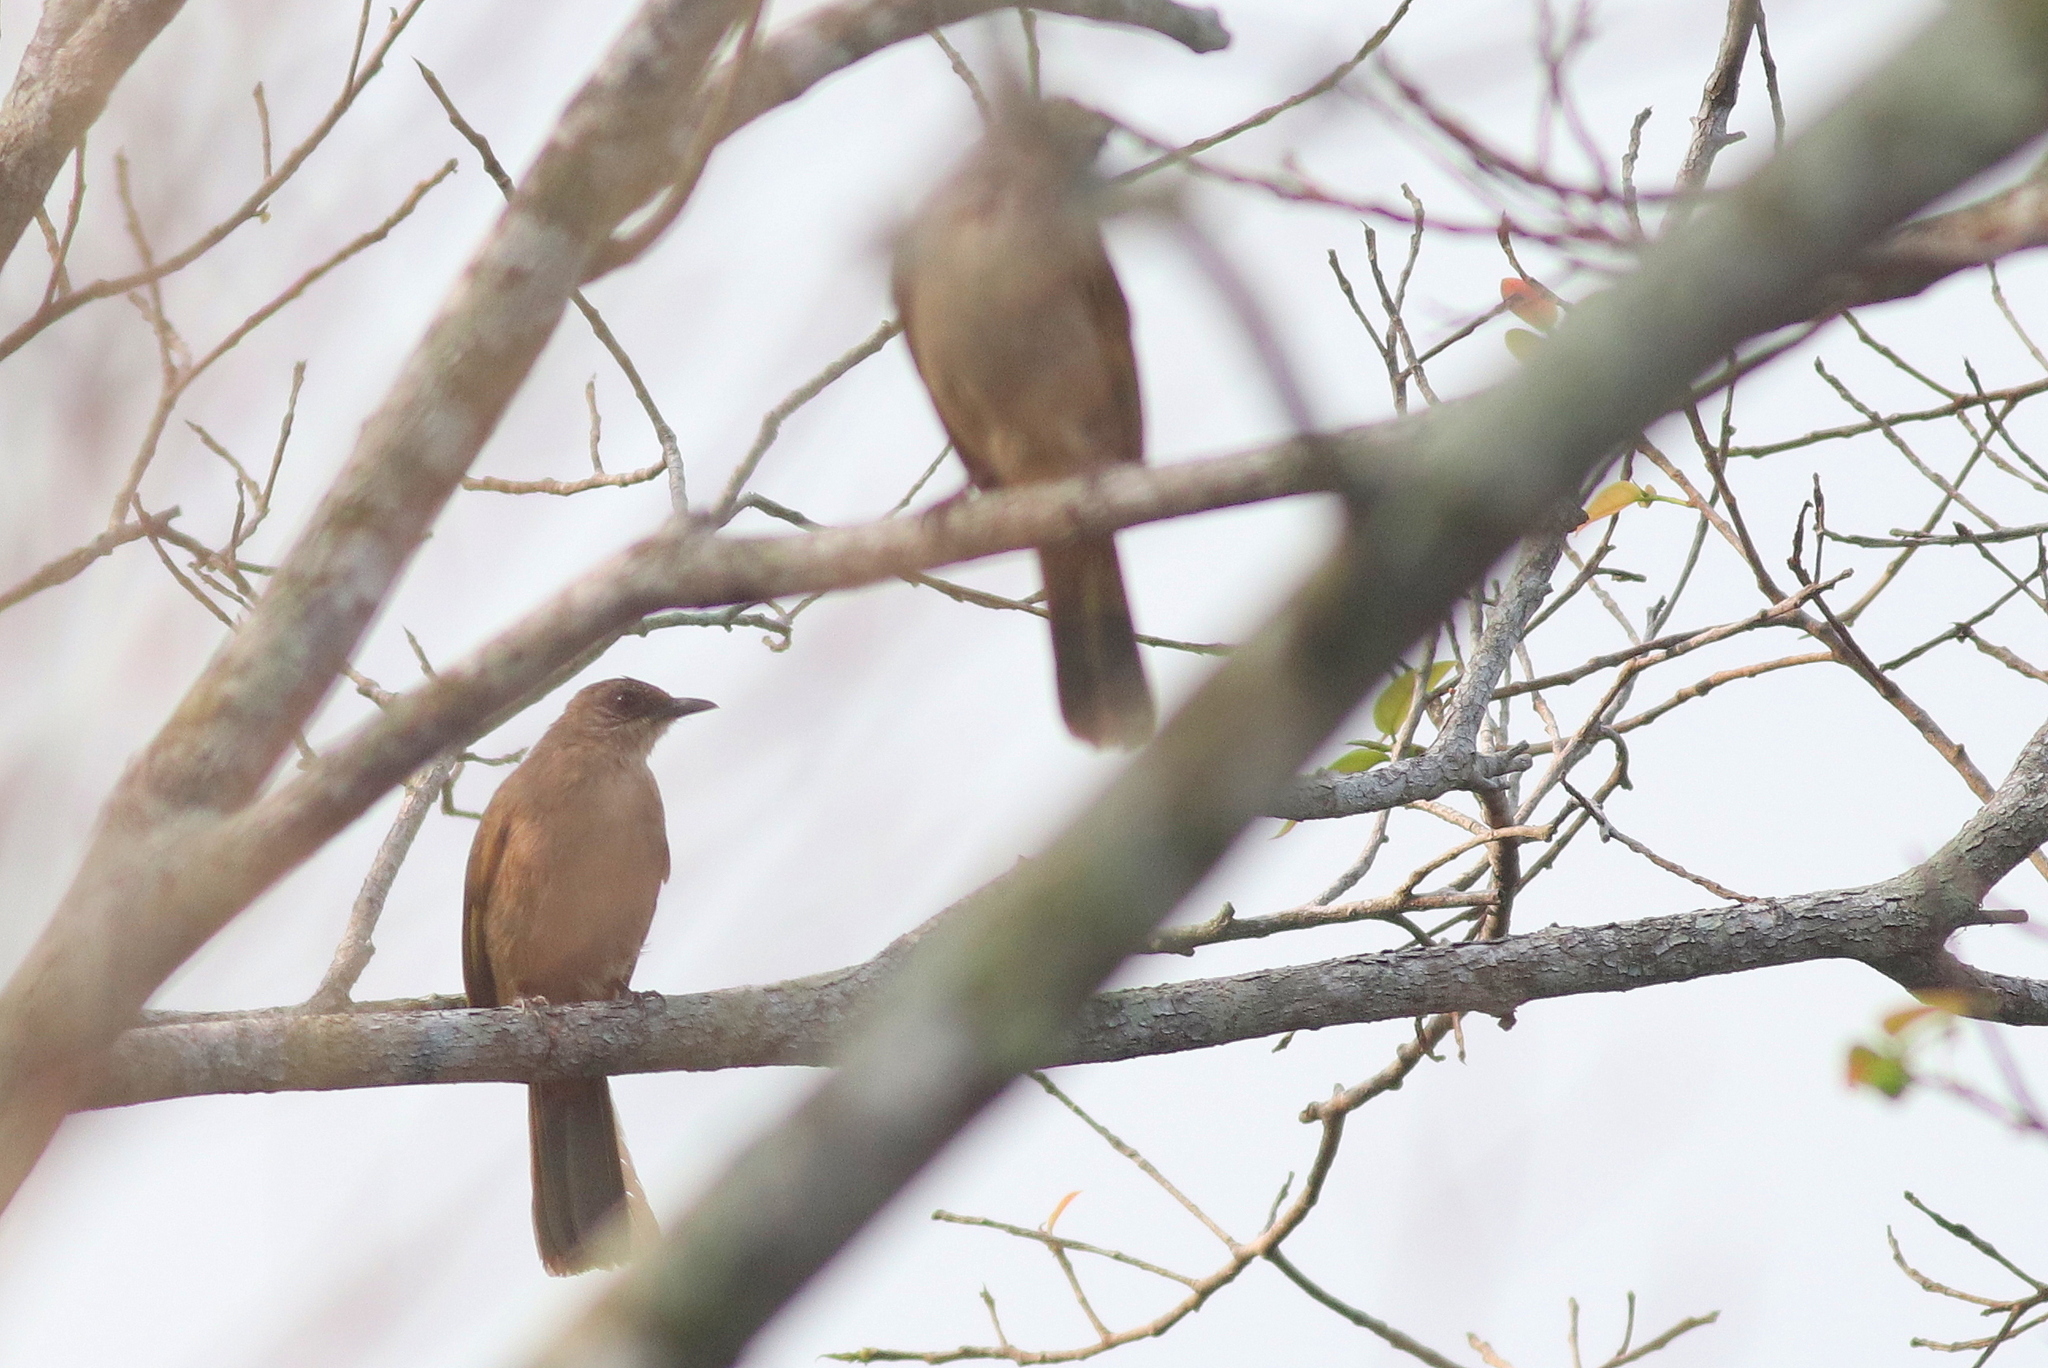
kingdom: Animalia
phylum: Chordata
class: Aves
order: Passeriformes
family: Pycnonotidae
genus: Pycnonotus
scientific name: Pycnonotus plumosus
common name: Olive-winged bulbul
